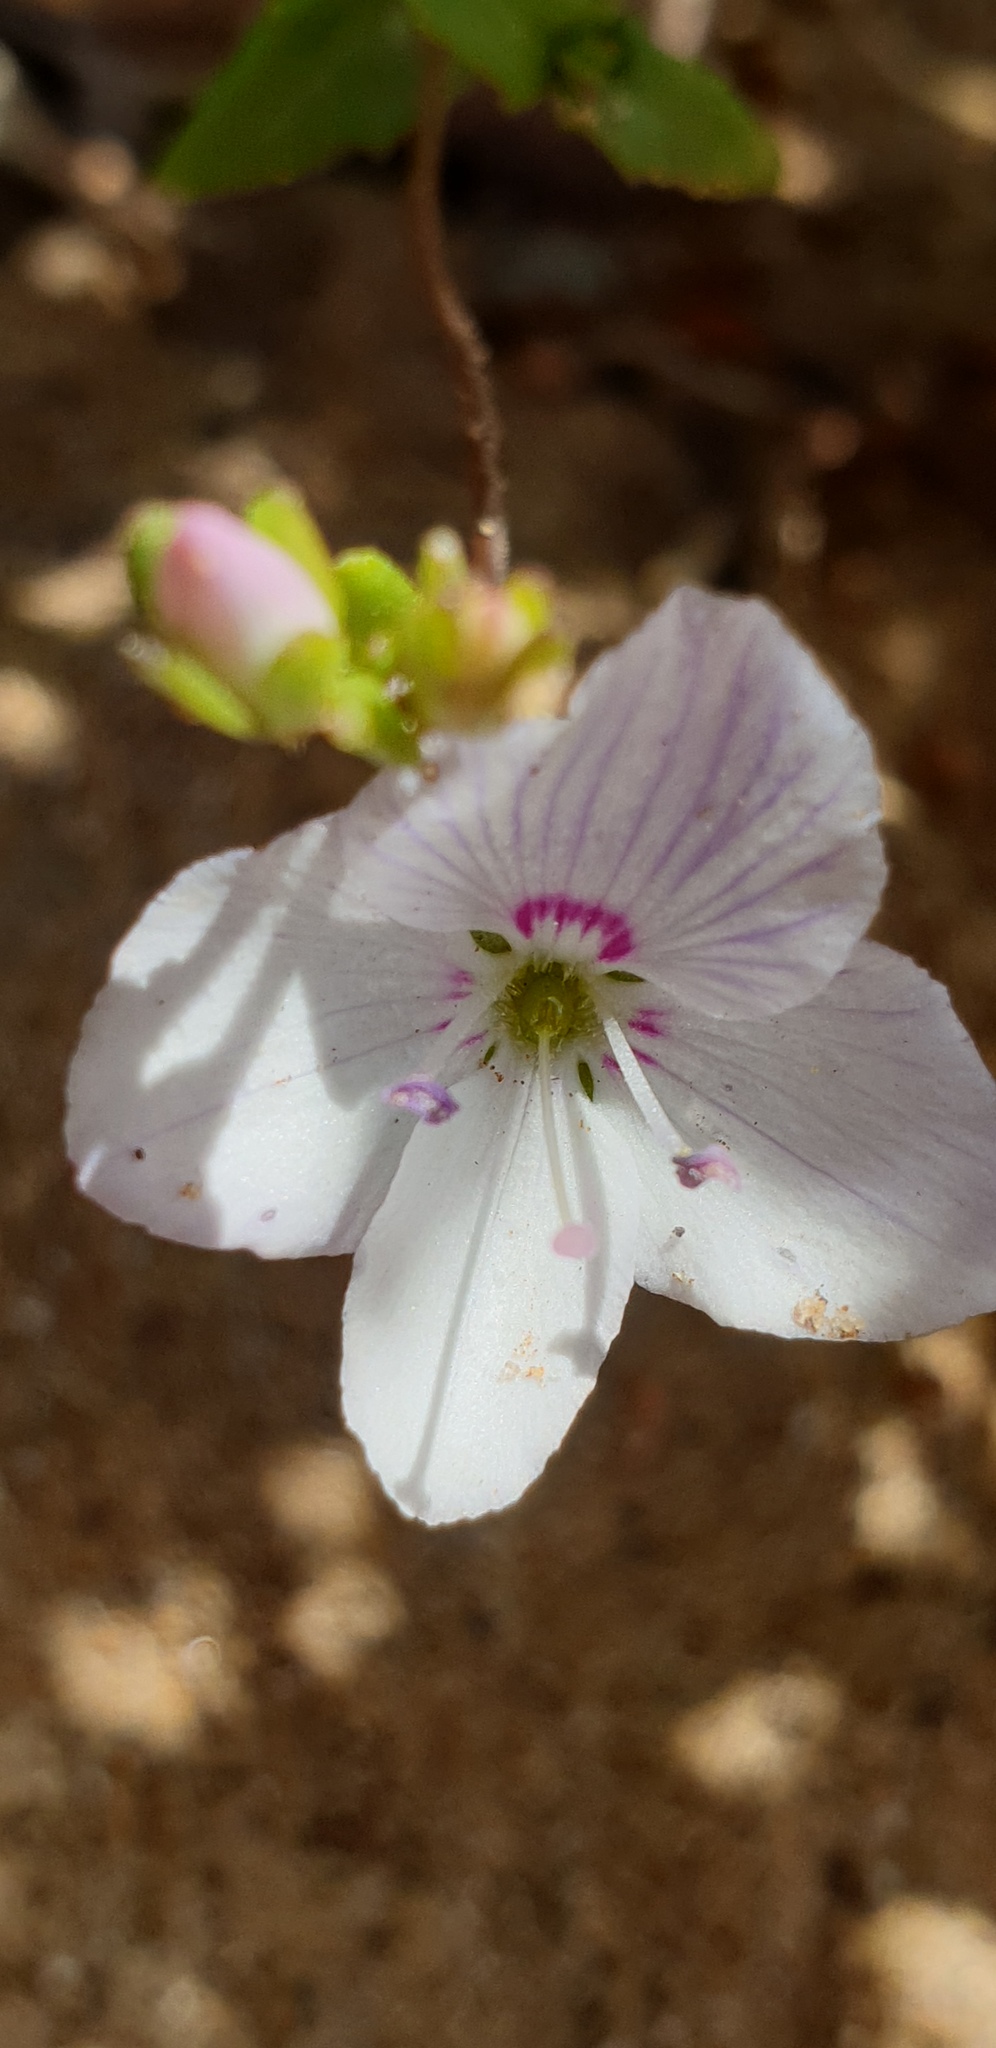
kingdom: Plantae
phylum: Tracheophyta
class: Magnoliopsida
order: Lamiales
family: Plantaginaceae
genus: Veronica
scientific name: Veronica hillebrandii
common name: Coast speedwell
